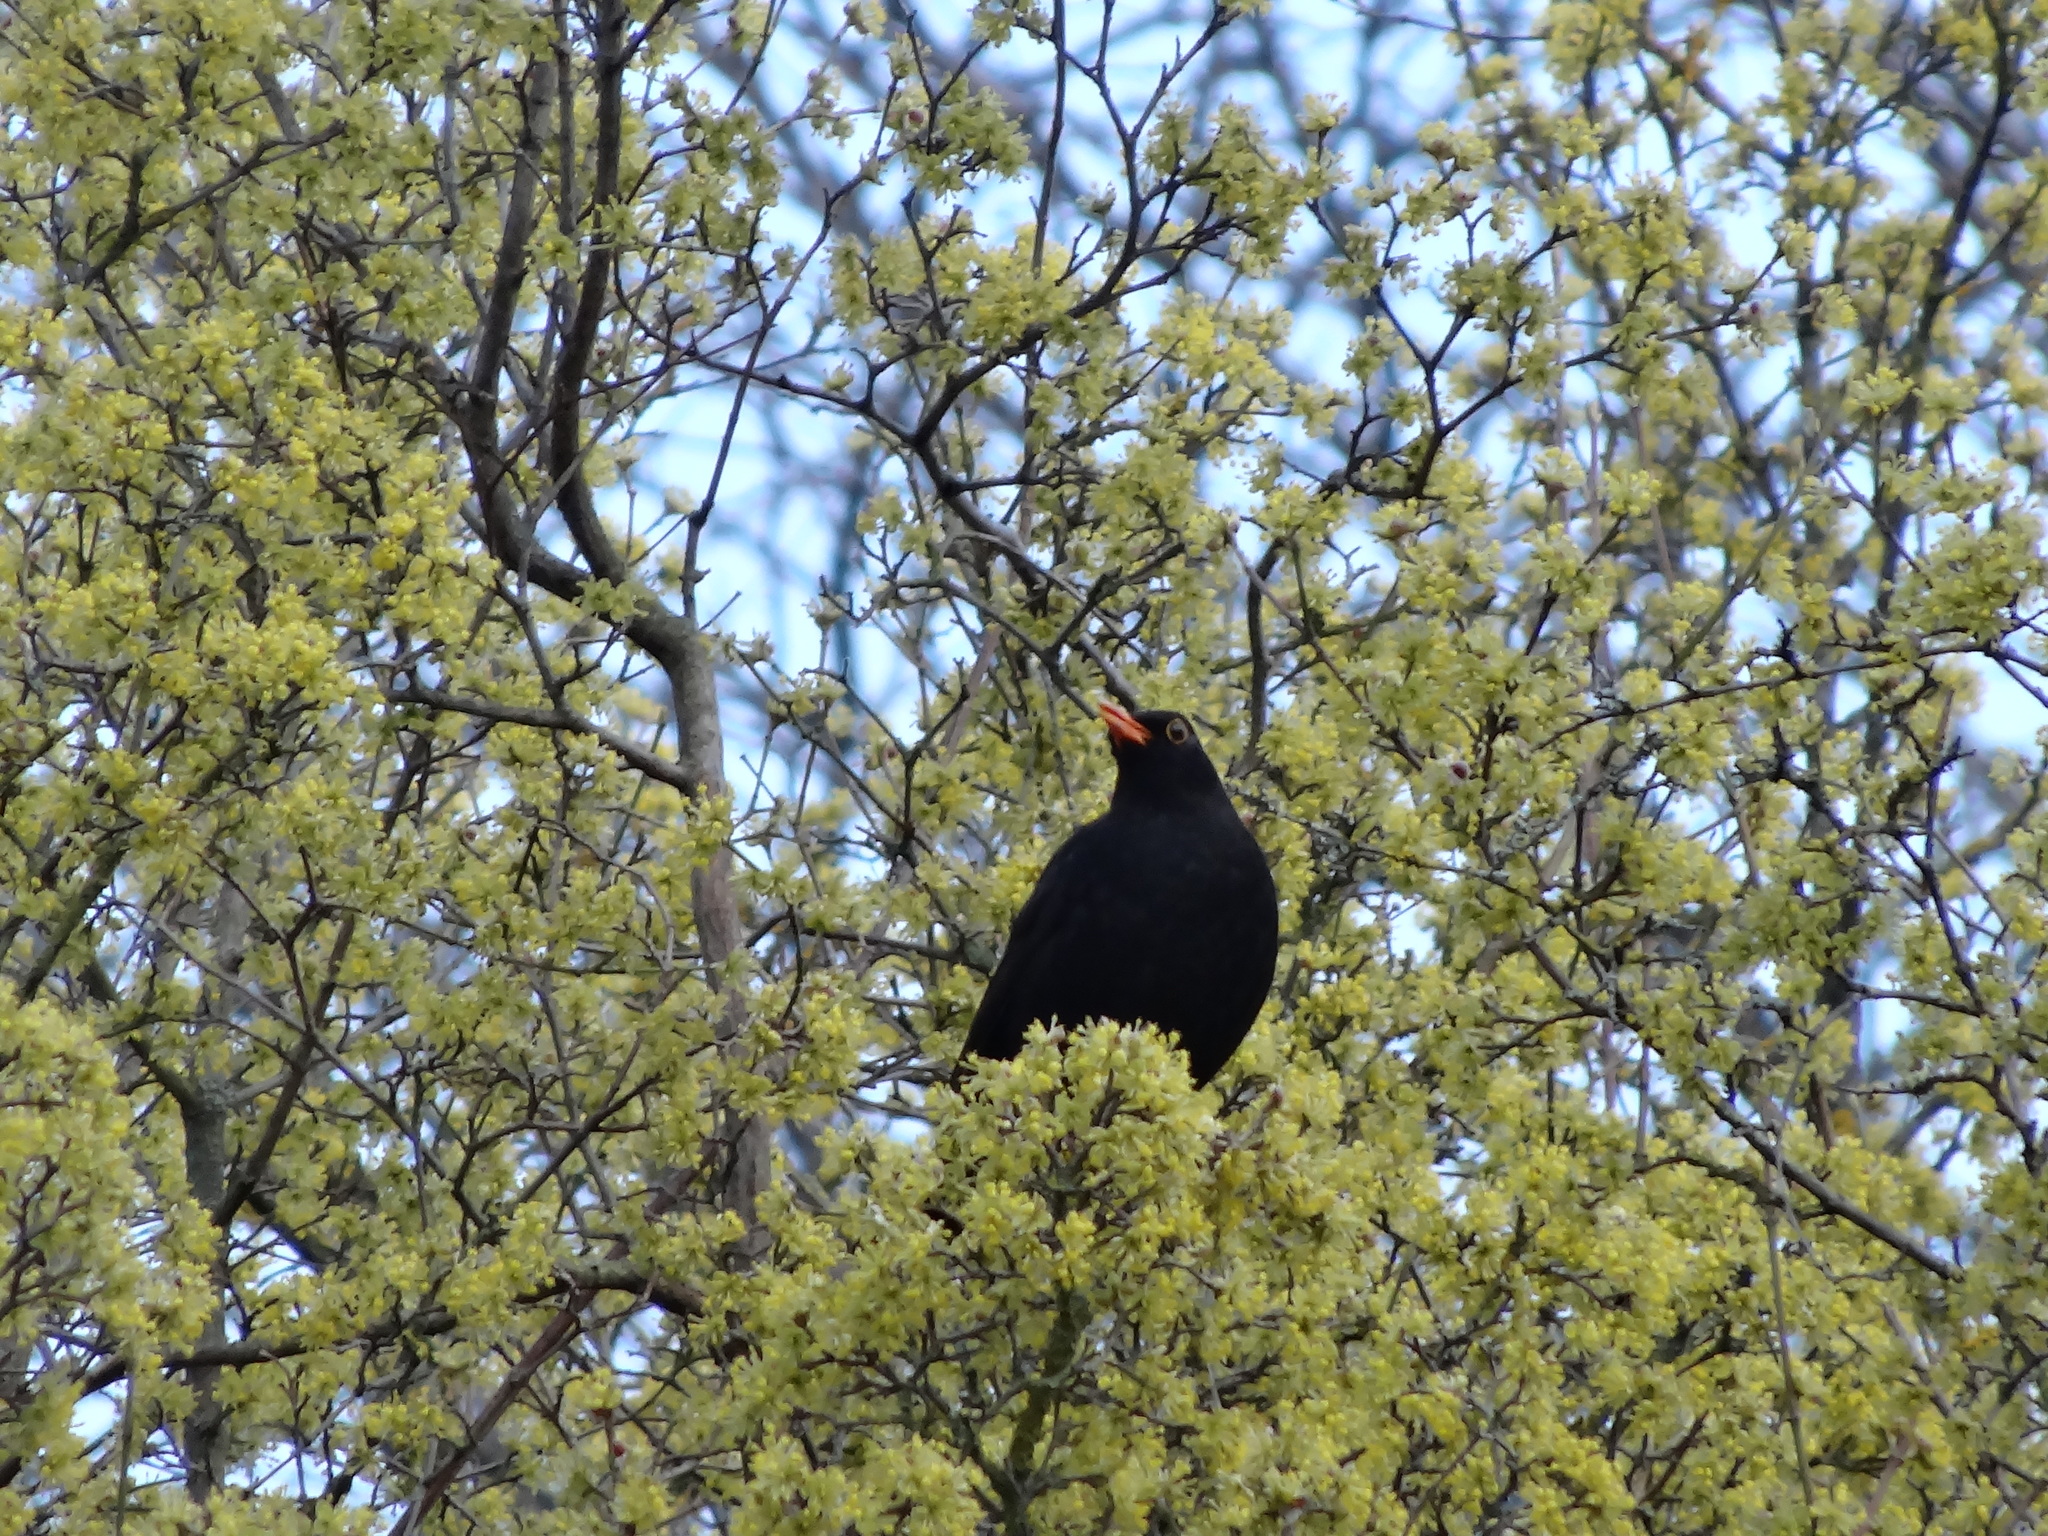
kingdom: Animalia
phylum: Chordata
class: Aves
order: Passeriformes
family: Turdidae
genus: Turdus
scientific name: Turdus merula
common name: Common blackbird
